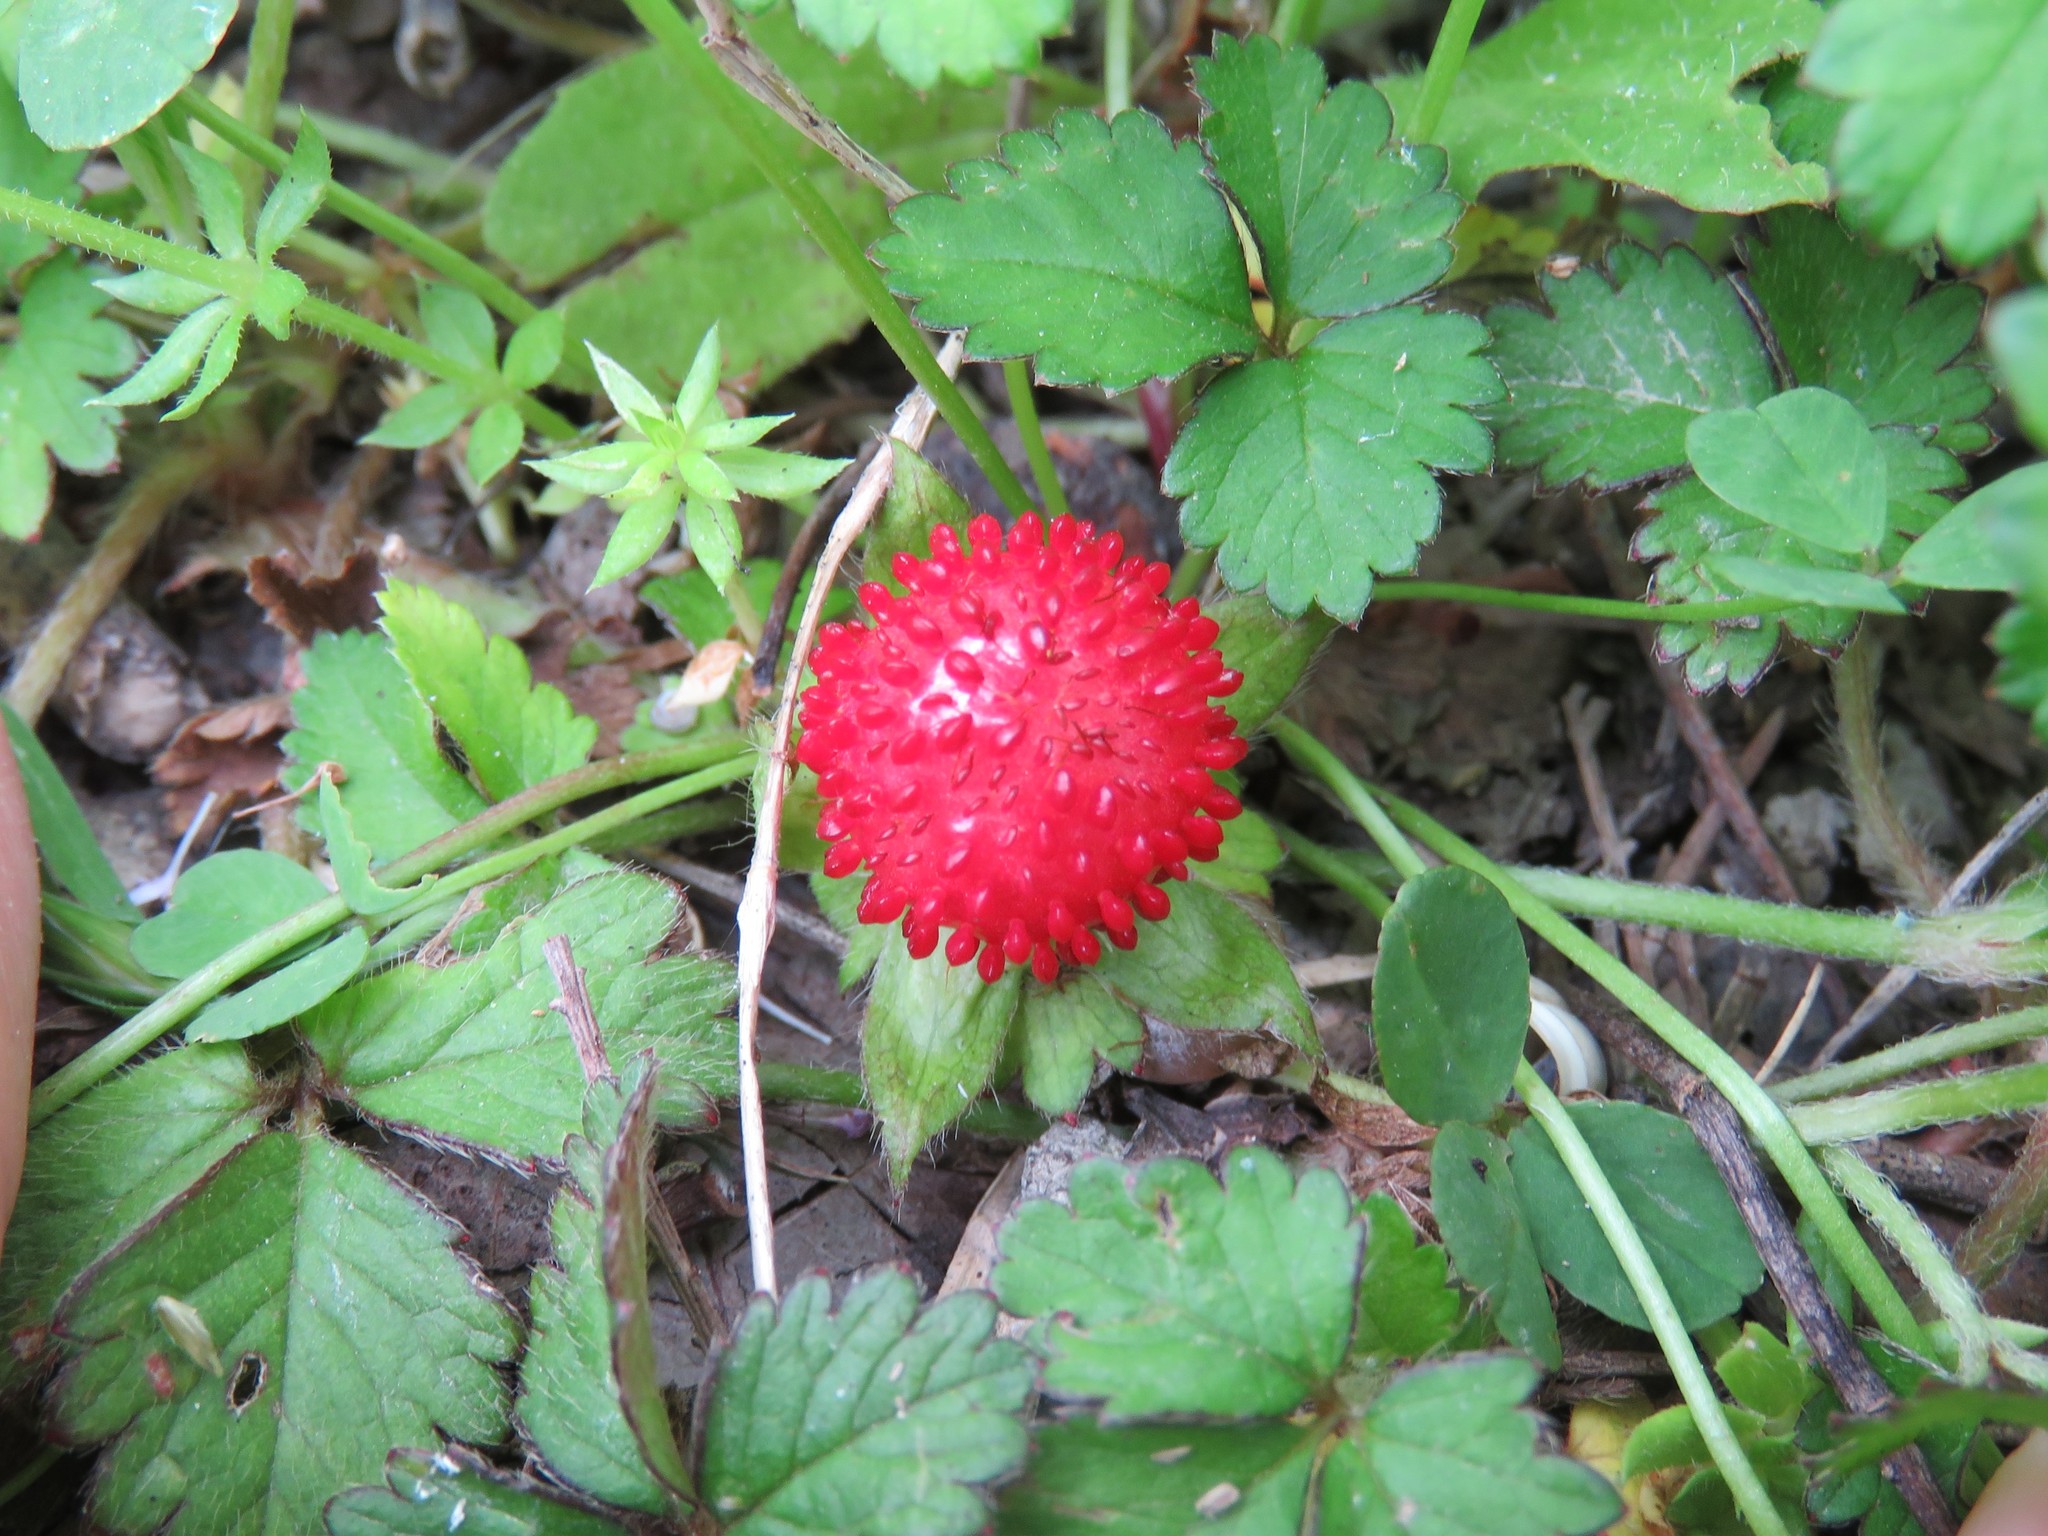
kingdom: Plantae
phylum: Tracheophyta
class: Magnoliopsida
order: Rosales
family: Rosaceae
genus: Potentilla
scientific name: Potentilla indica
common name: Yellow-flowered strawberry
